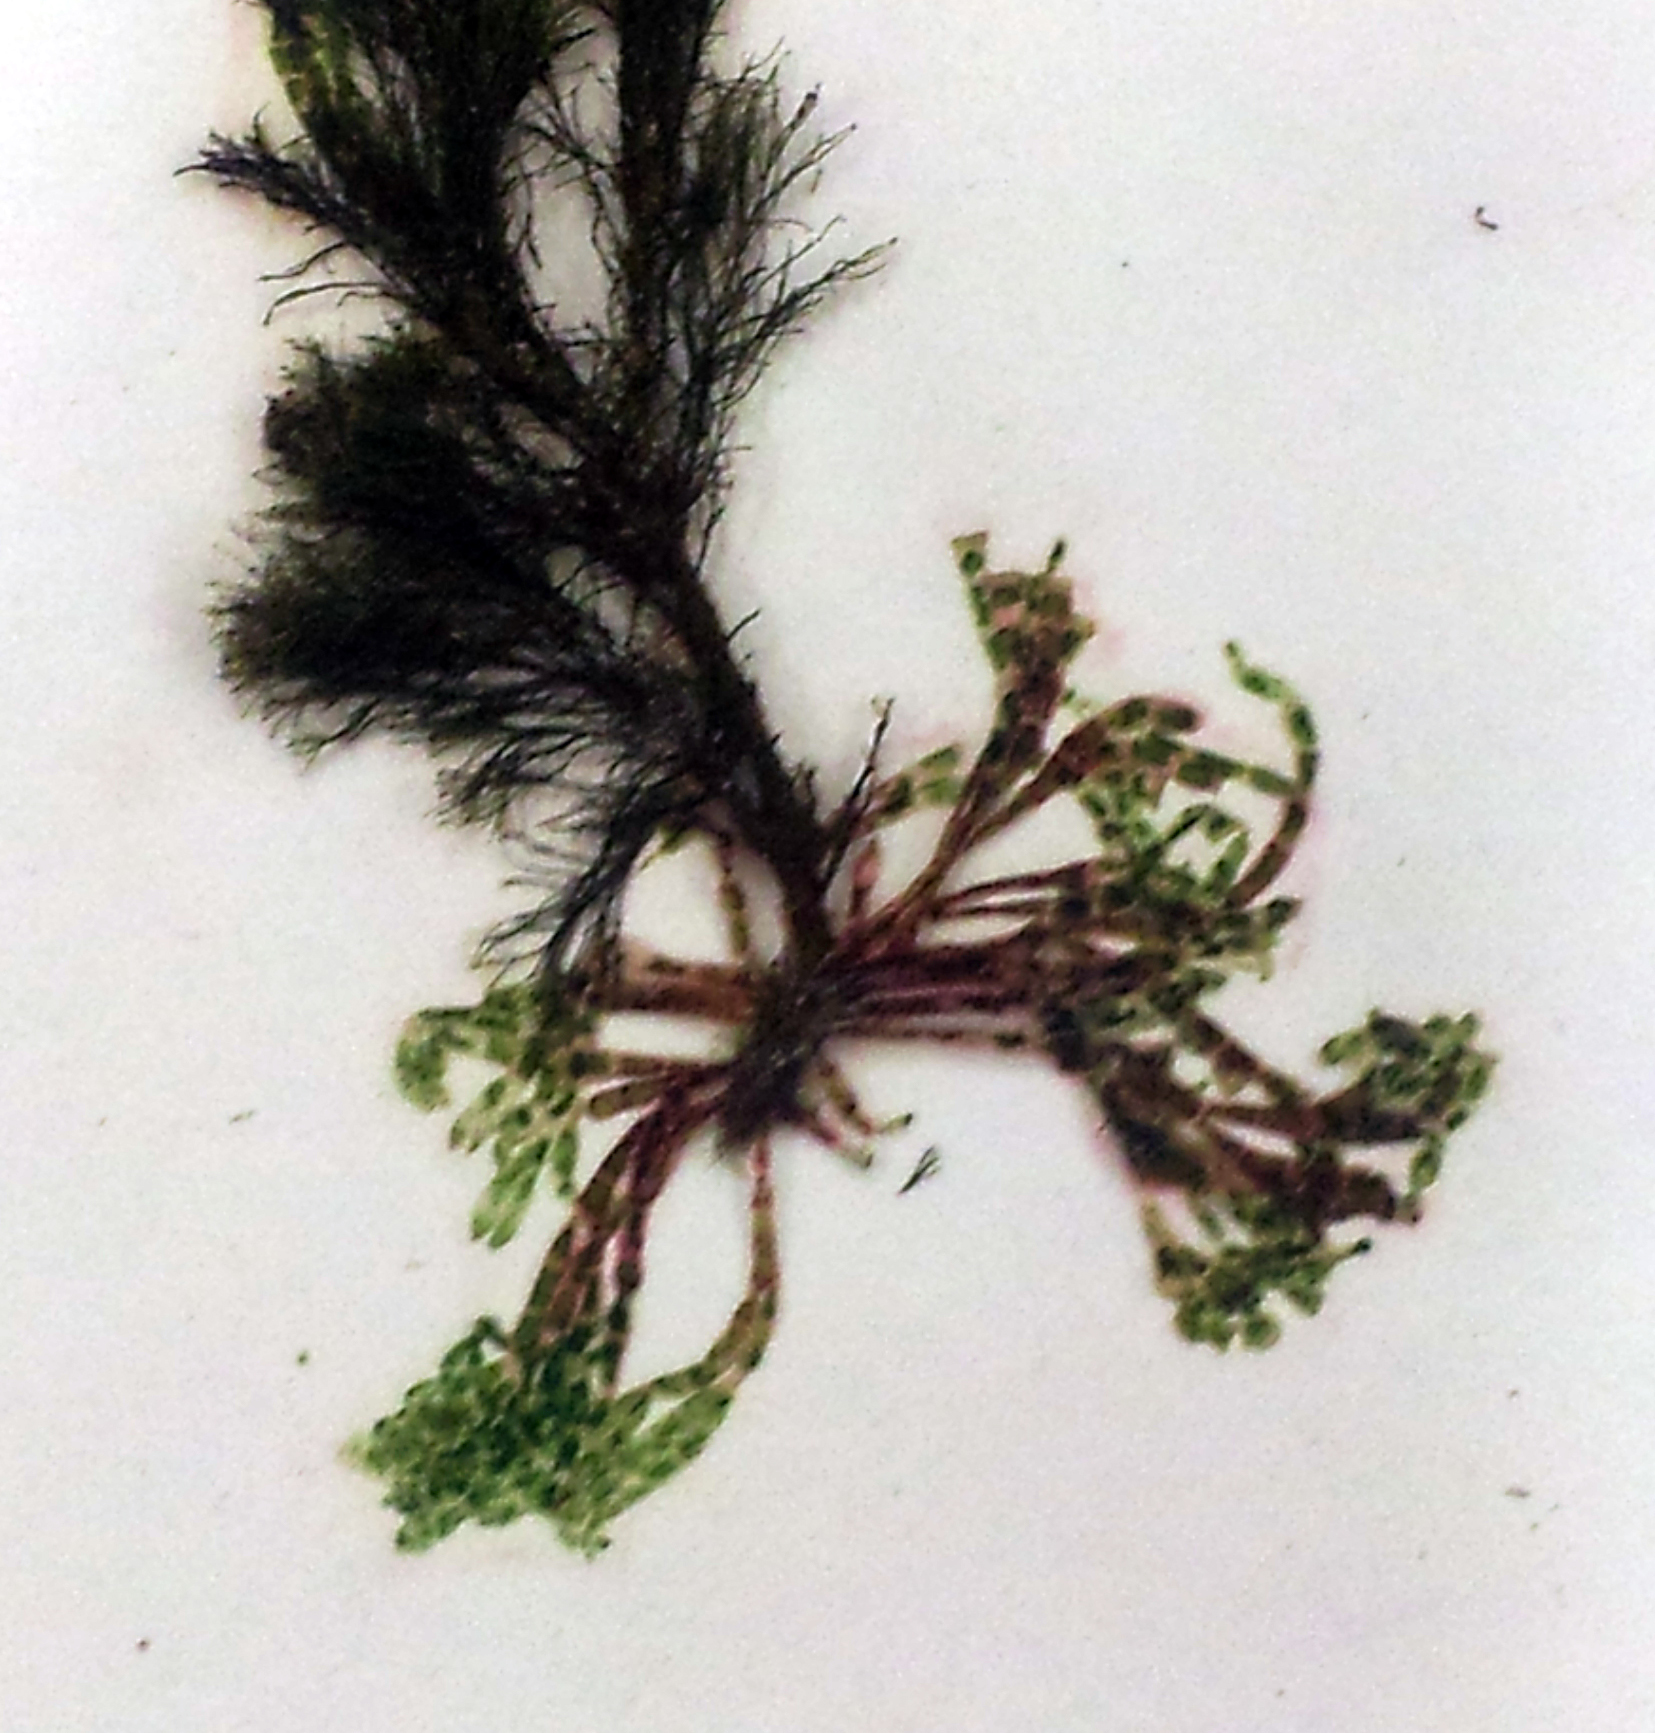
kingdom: Plantae
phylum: Rhodophyta
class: Florideophyceae
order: Ceramiales
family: Wrangeliaceae
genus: Griffithsia
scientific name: Griffithsia traversii
